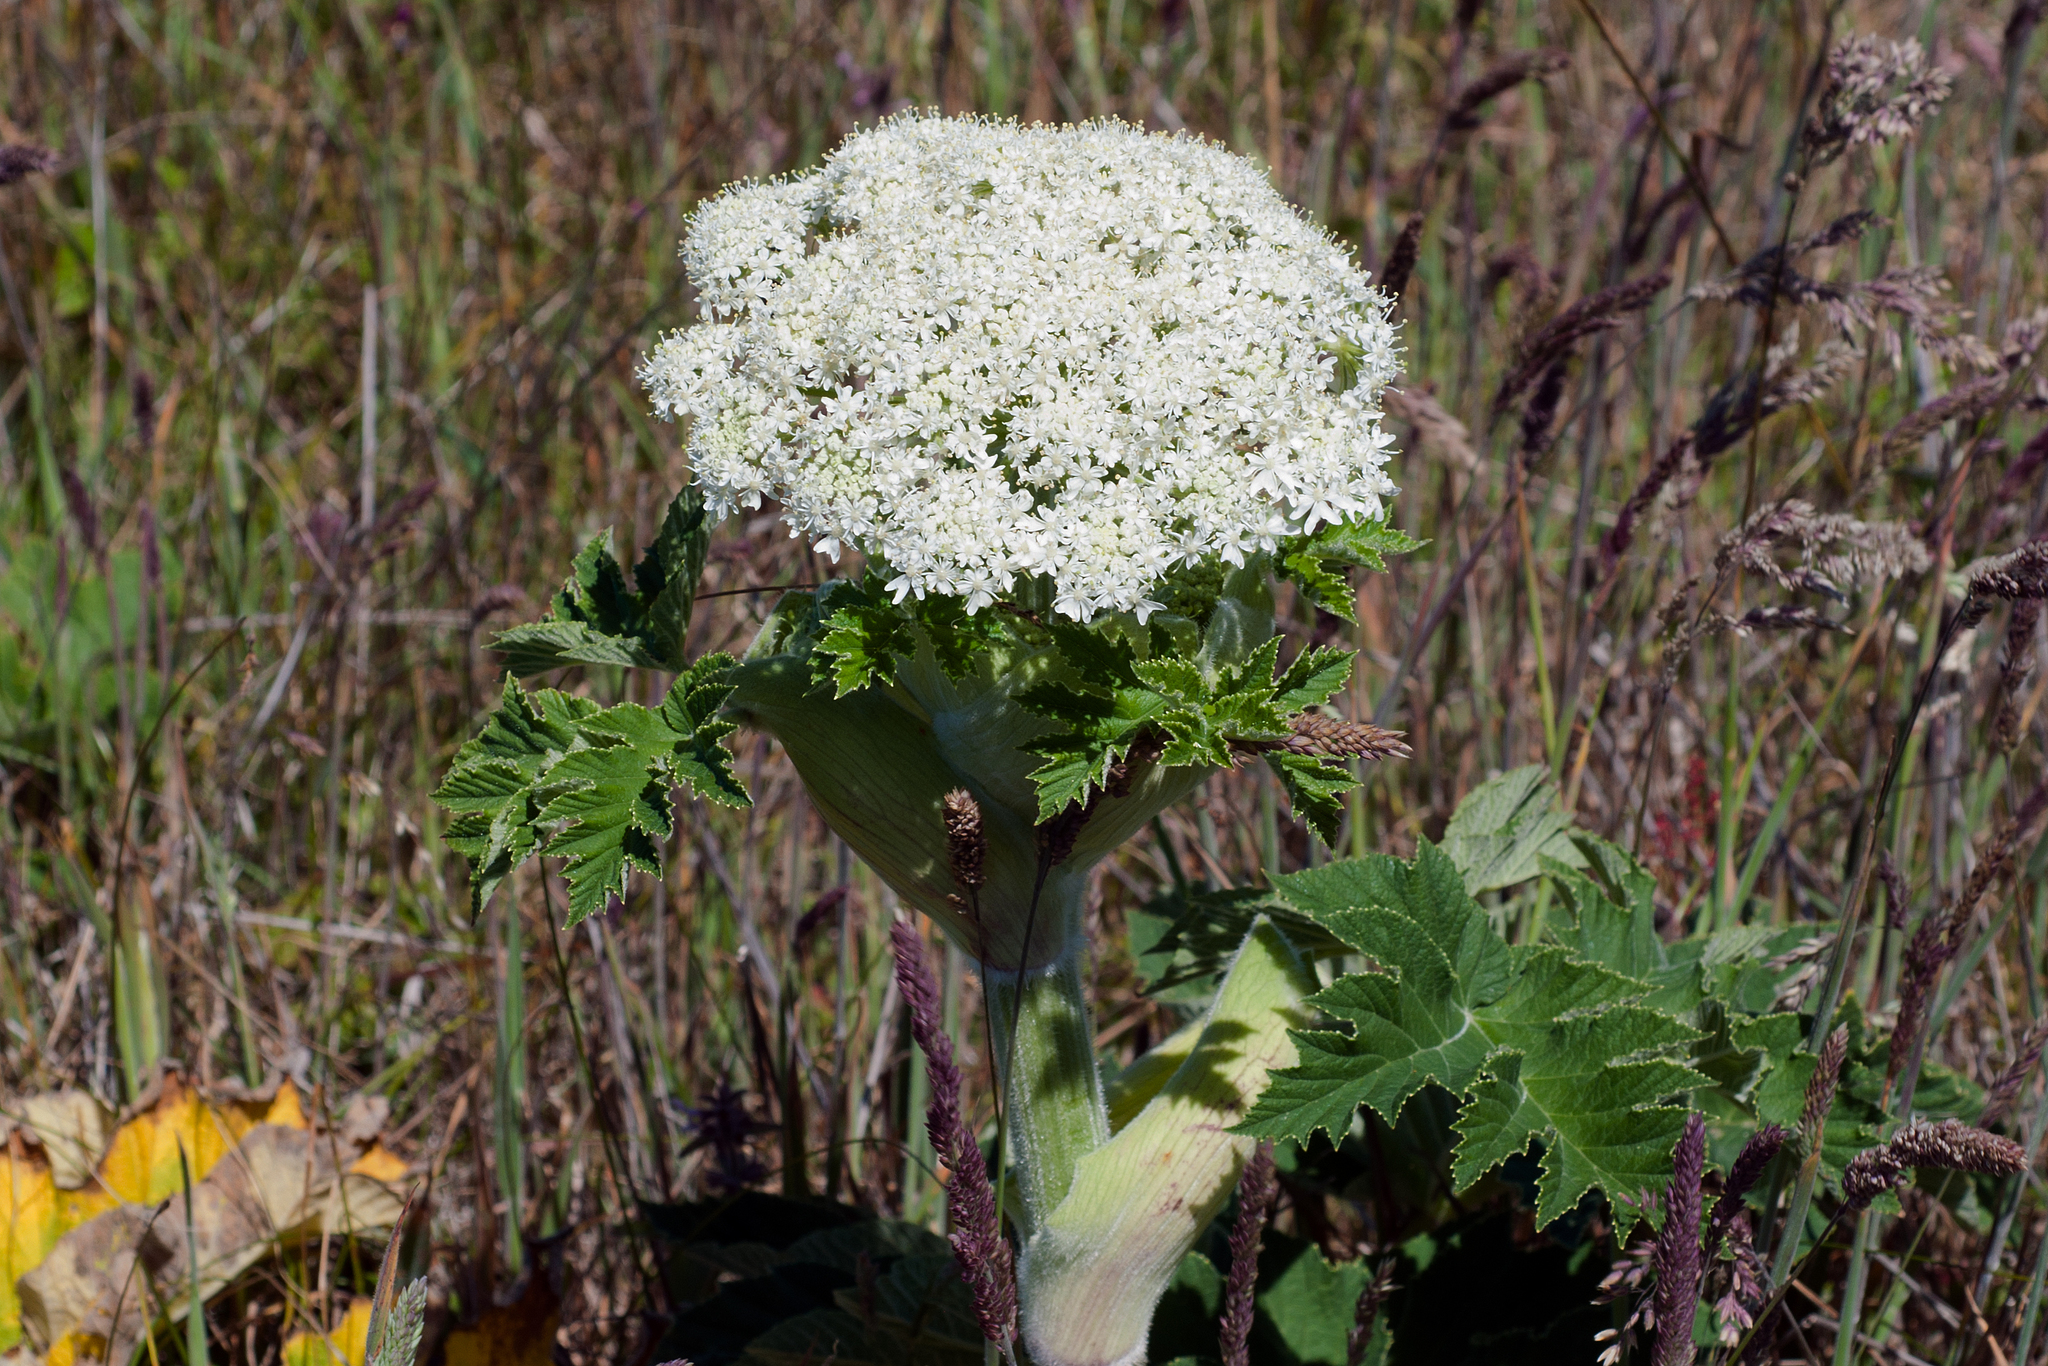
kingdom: Plantae
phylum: Tracheophyta
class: Magnoliopsida
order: Apiales
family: Apiaceae
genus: Heracleum
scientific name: Heracleum maximum
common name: American cow parsnip
